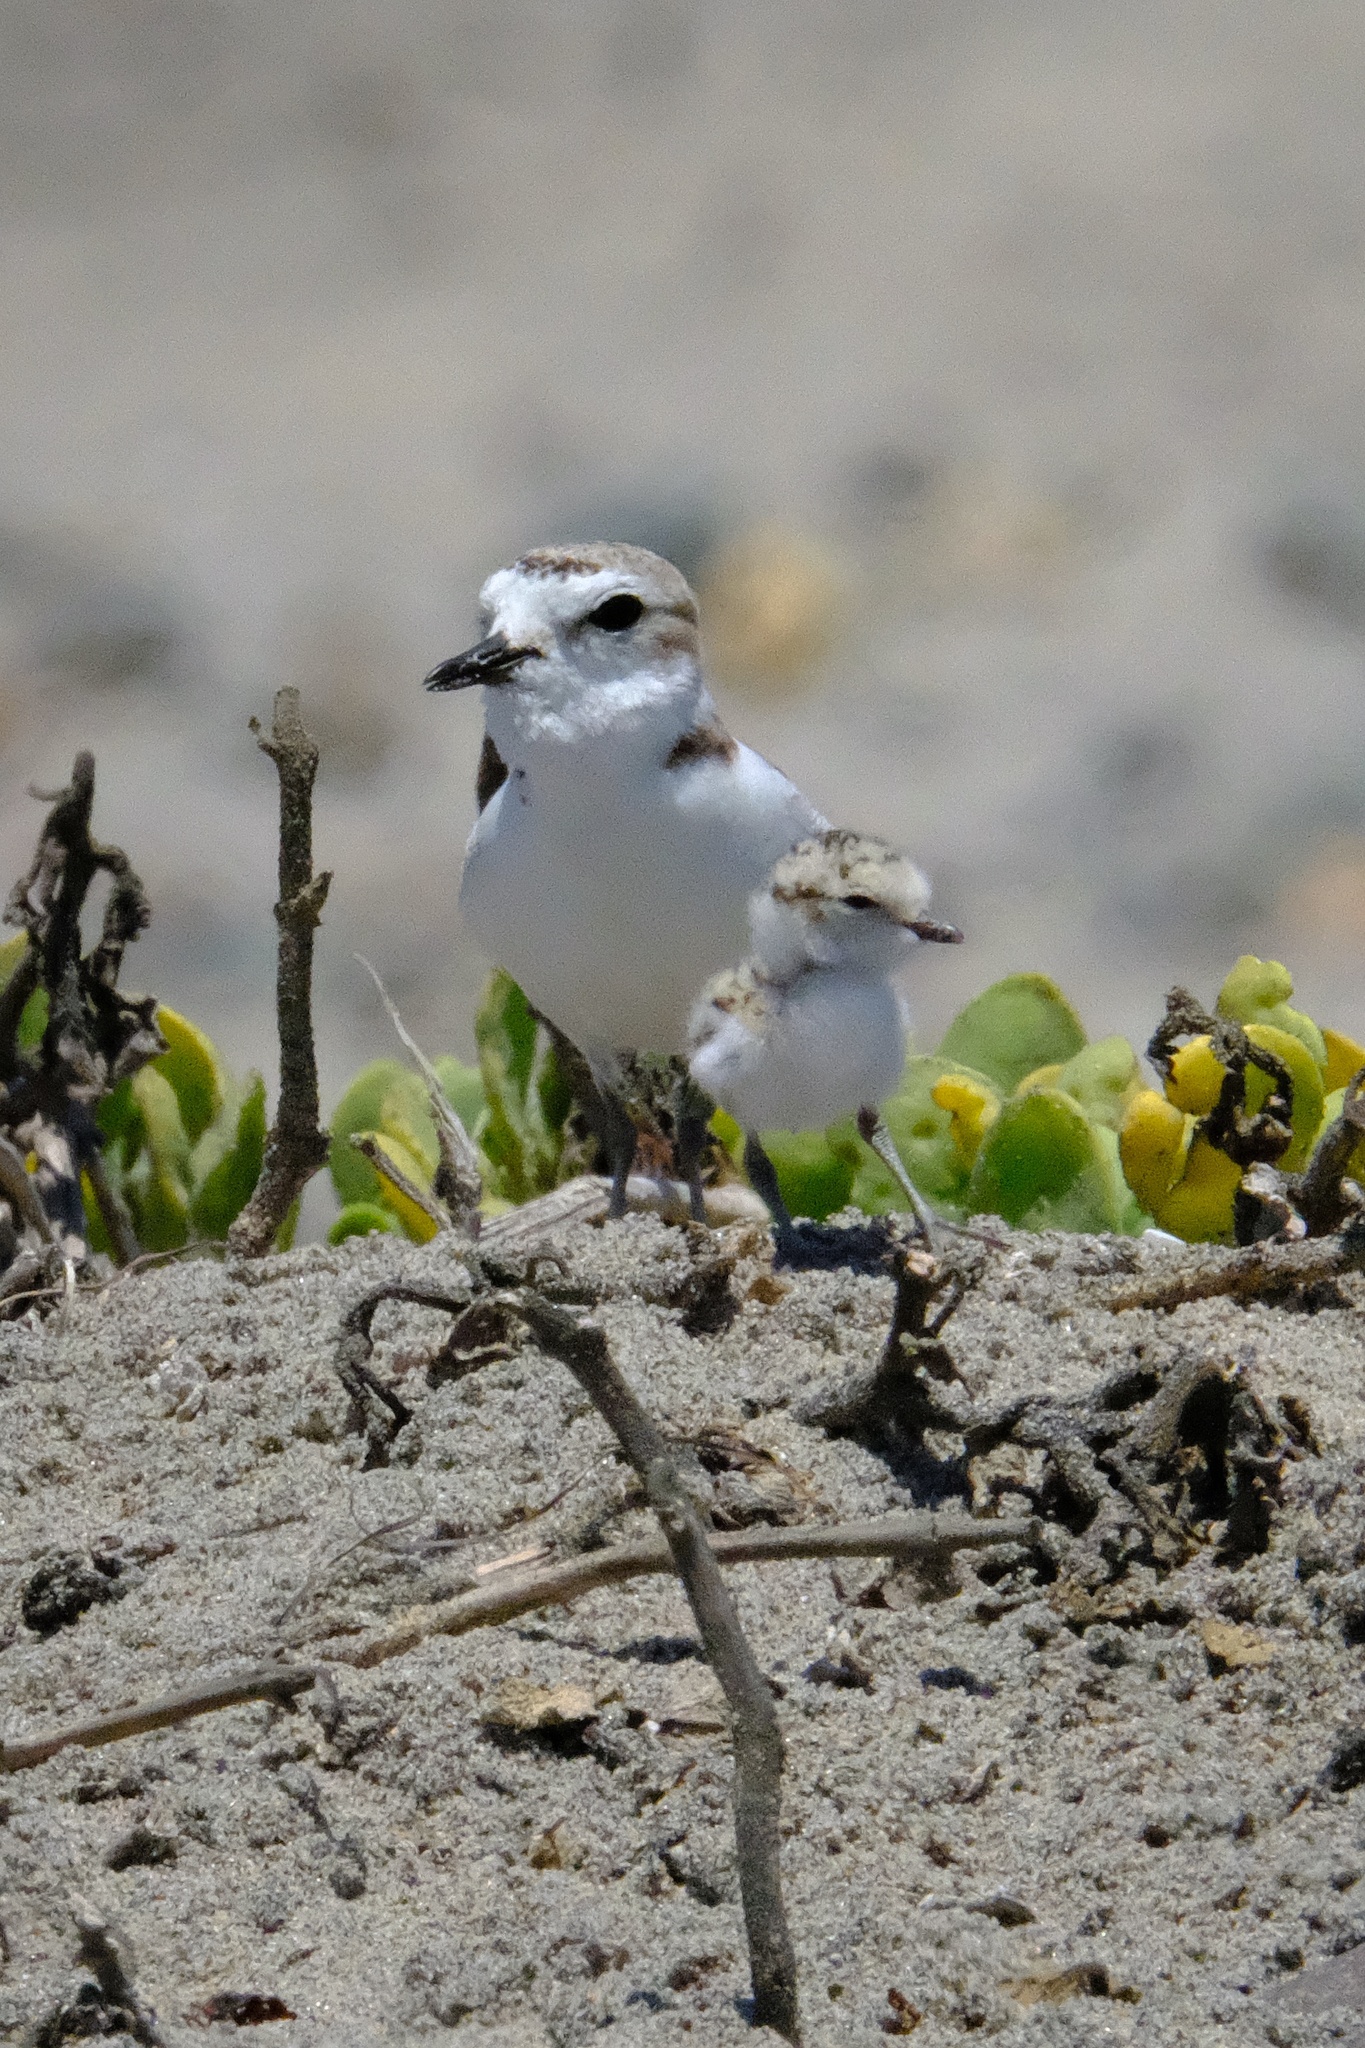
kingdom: Animalia
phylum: Chordata
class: Aves
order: Charadriiformes
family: Charadriidae
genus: Anarhynchus
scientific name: Anarhynchus
